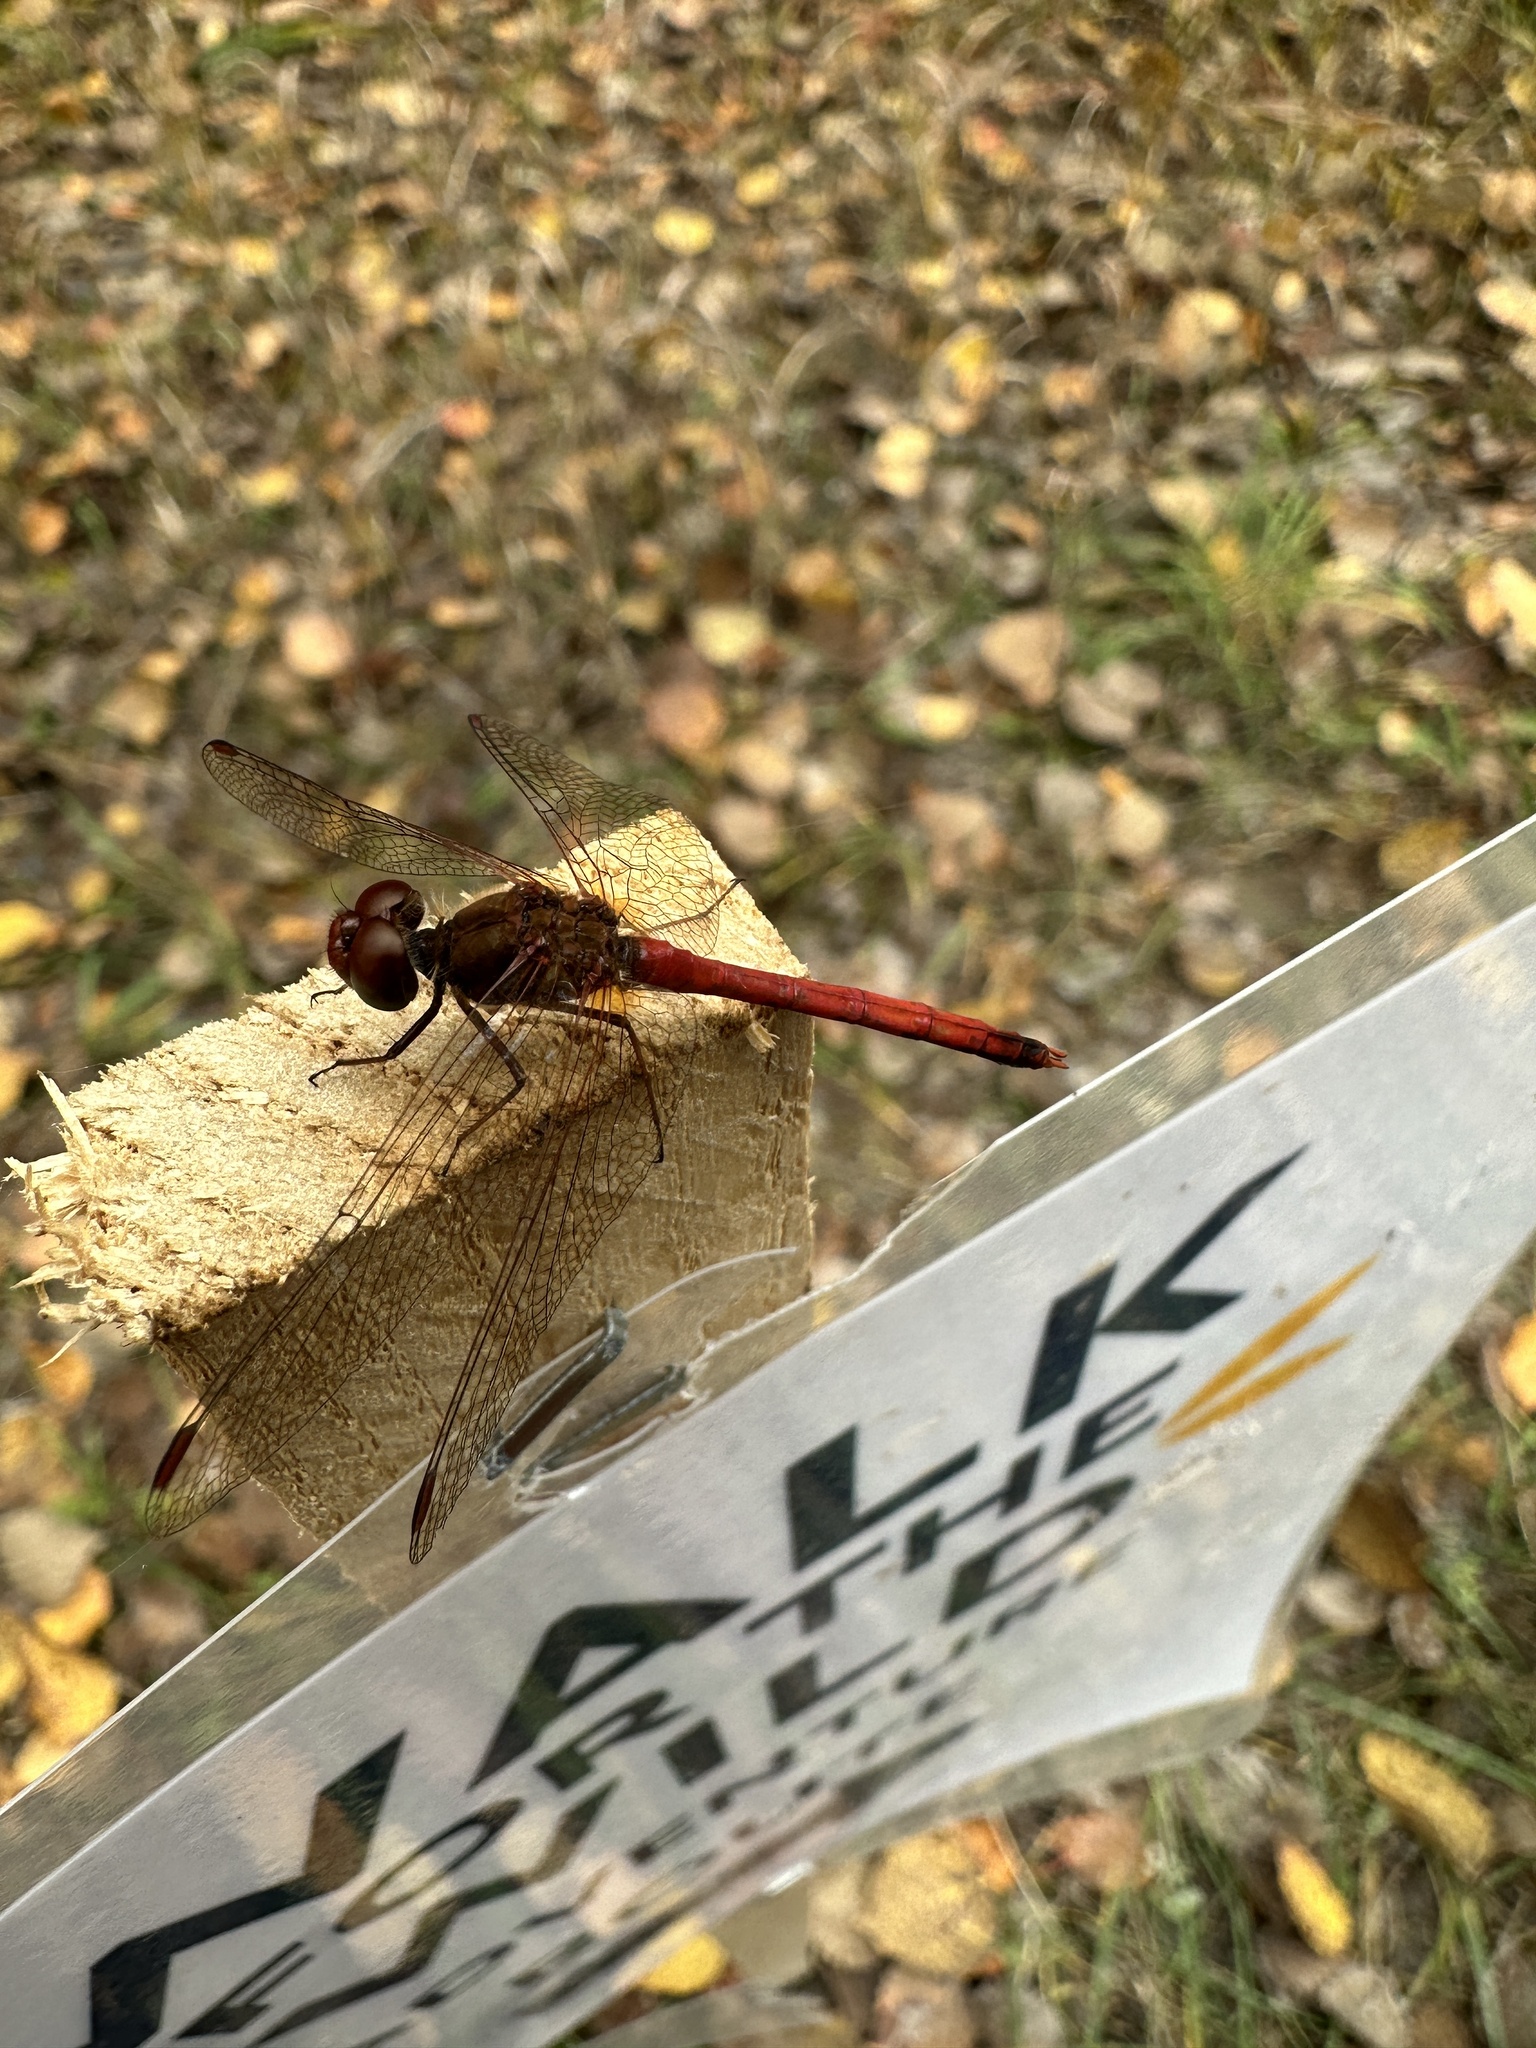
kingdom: Animalia
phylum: Arthropoda
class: Insecta
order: Odonata
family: Libellulidae
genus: Sympetrum
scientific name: Sympetrum vicinum
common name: Autumn meadowhawk
